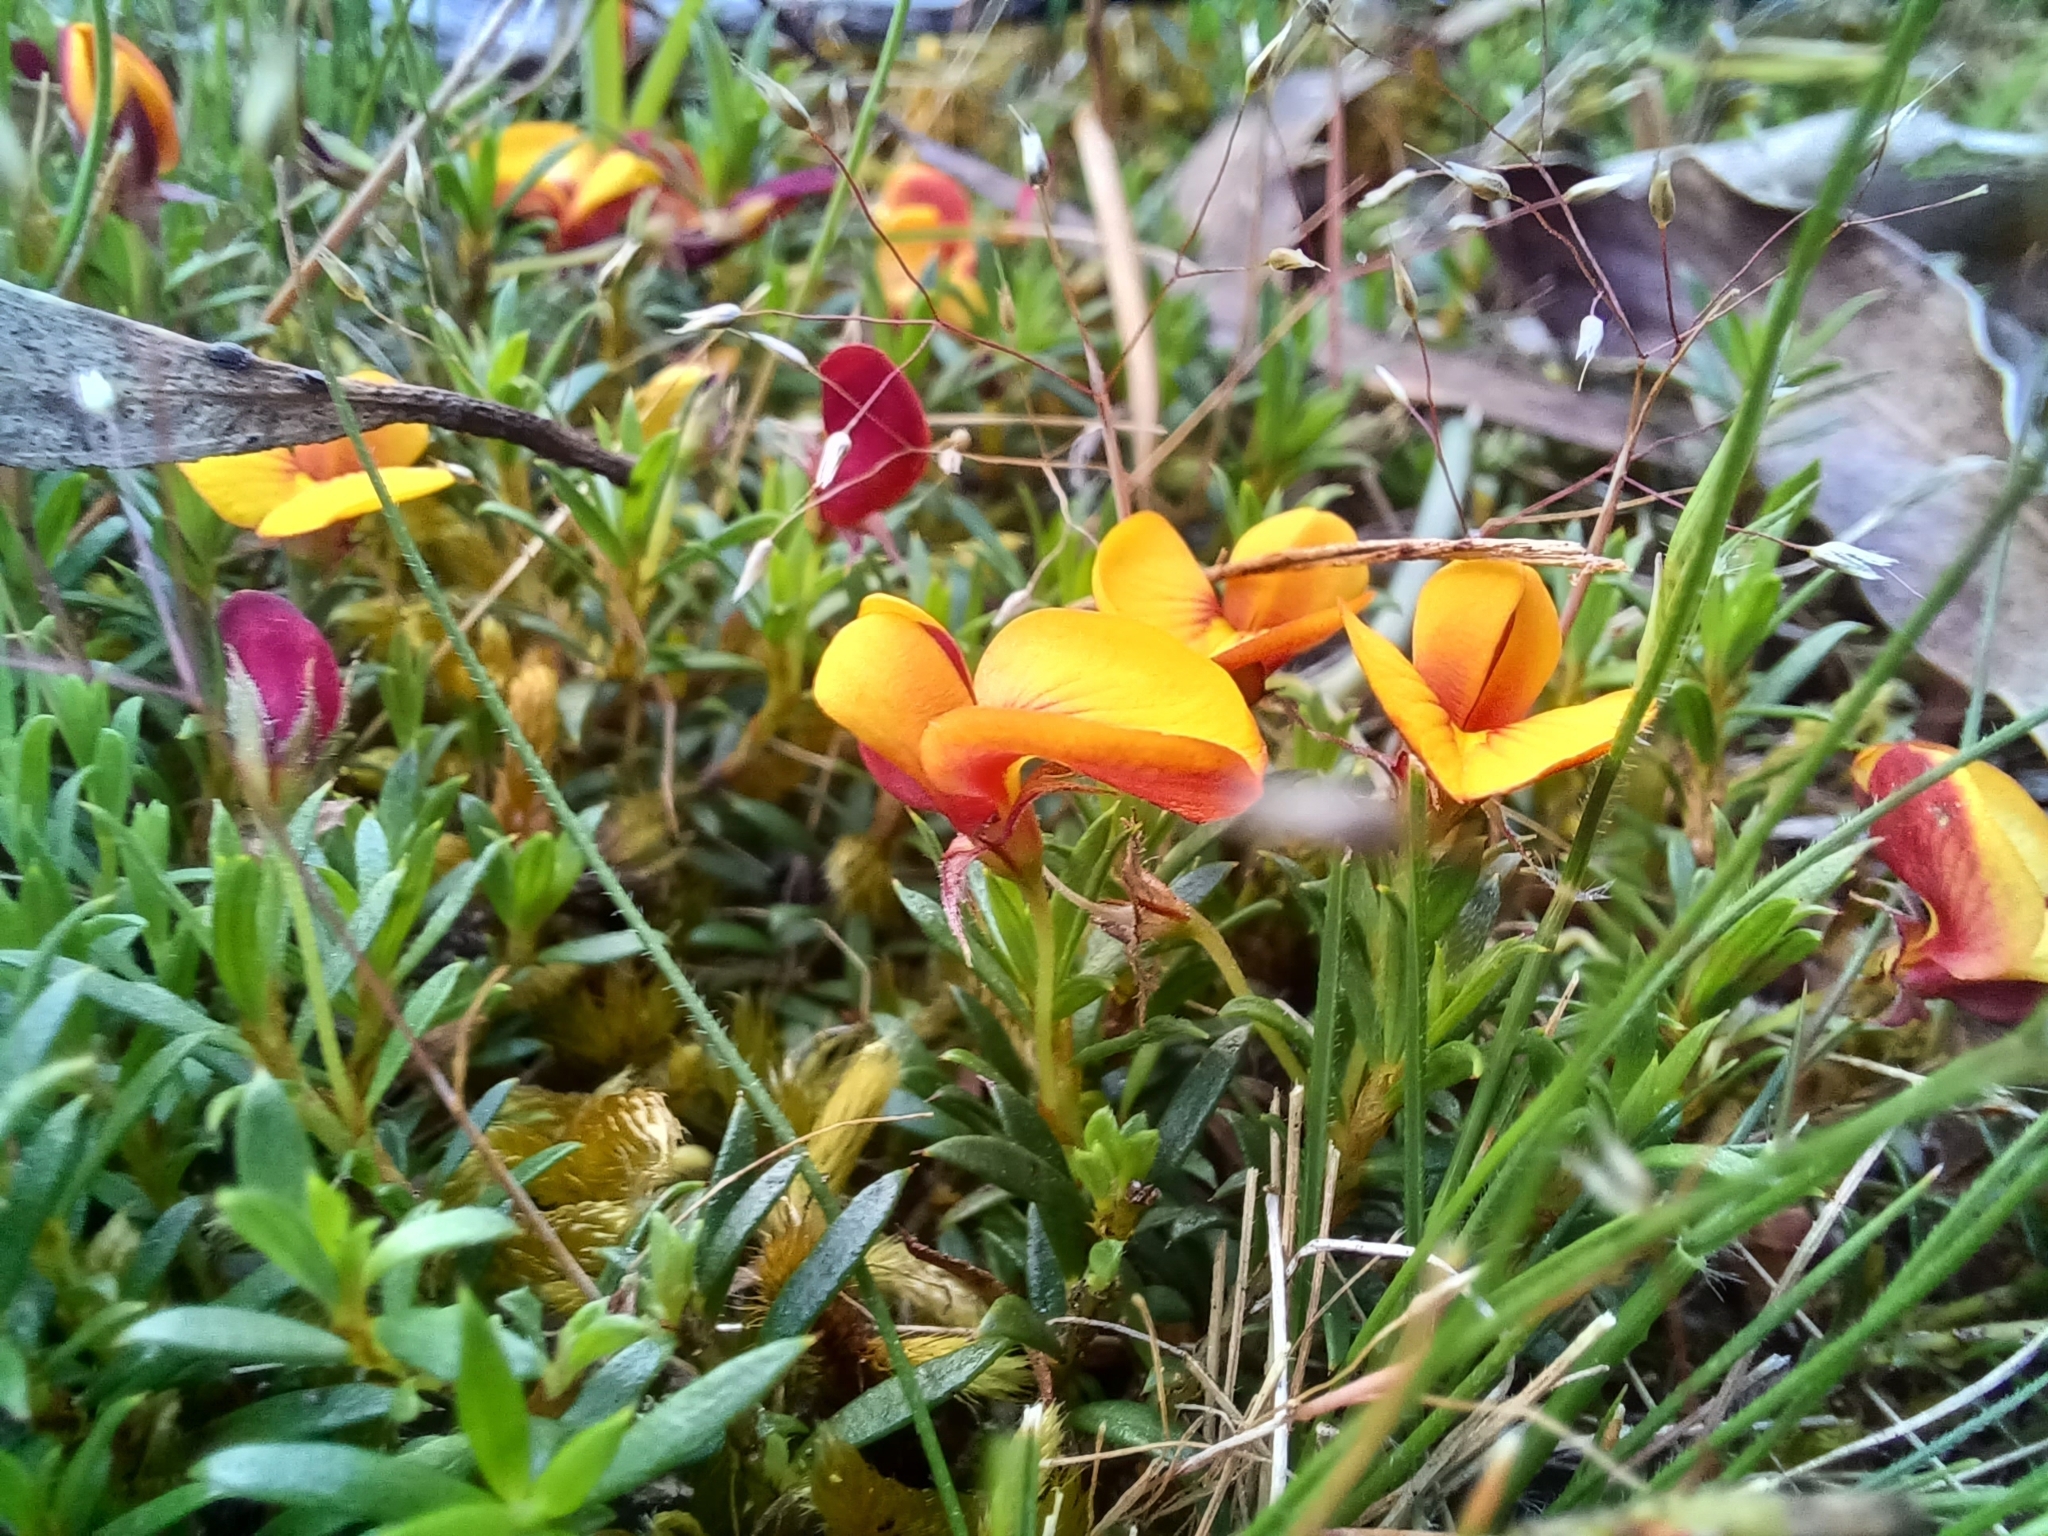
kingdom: Plantae
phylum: Tracheophyta
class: Magnoliopsida
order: Fabales
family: Fabaceae
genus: Pultenaea
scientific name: Pultenaea pedunculata
